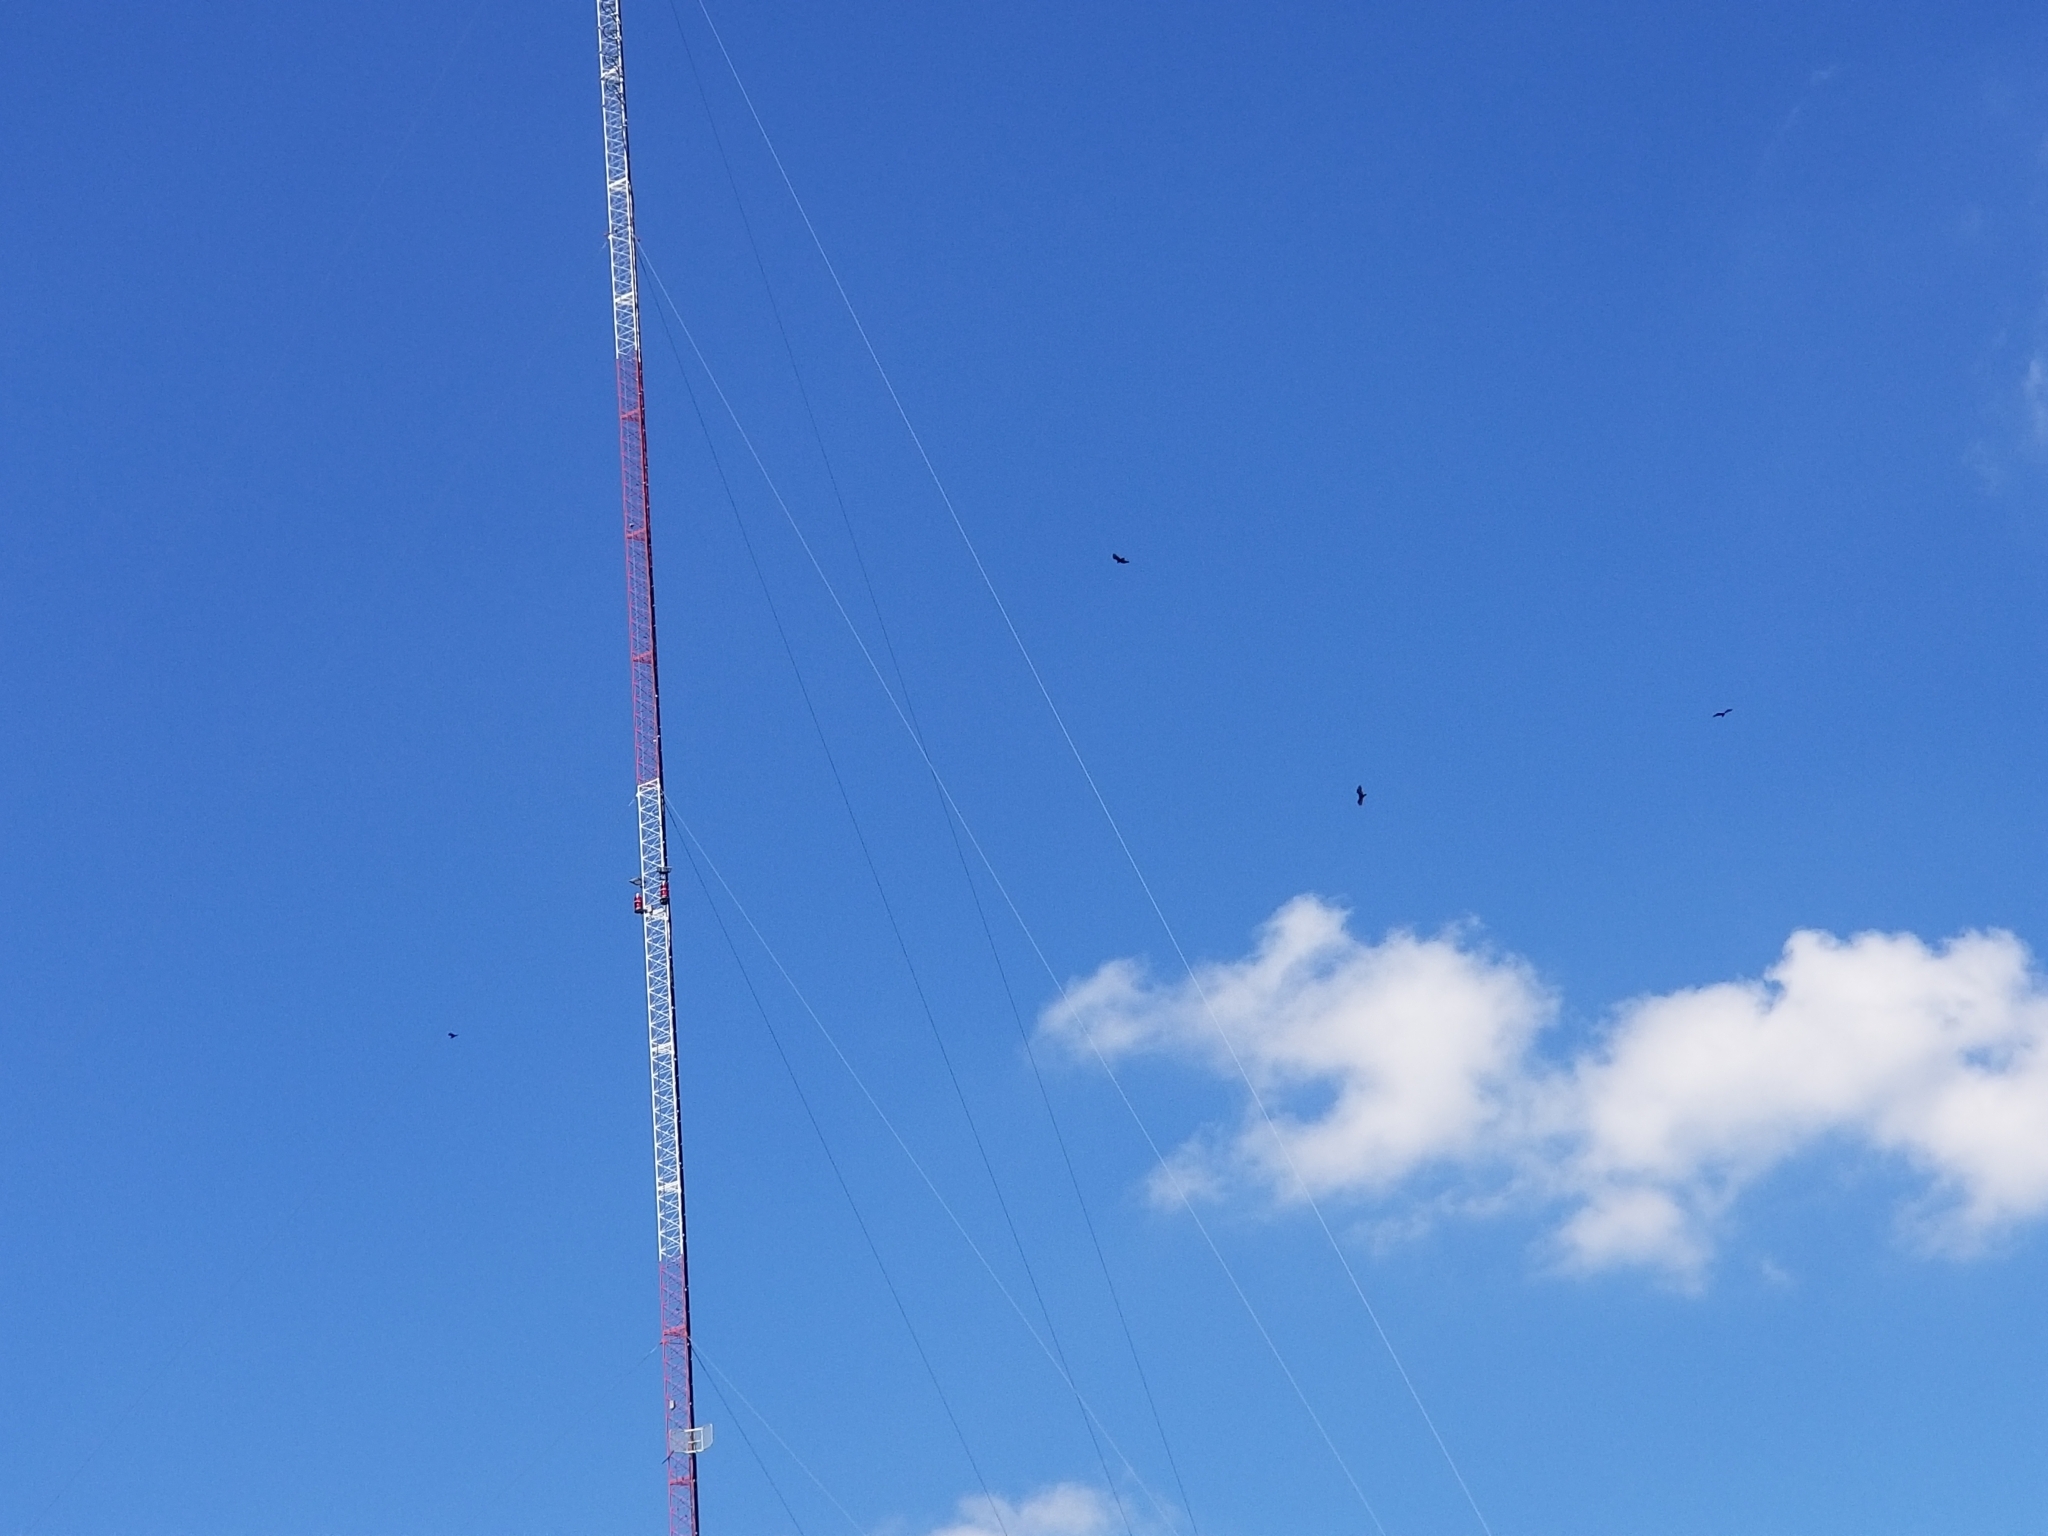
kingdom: Animalia
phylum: Chordata
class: Aves
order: Accipitriformes
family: Cathartidae
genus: Cathartes
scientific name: Cathartes aura
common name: Turkey vulture
